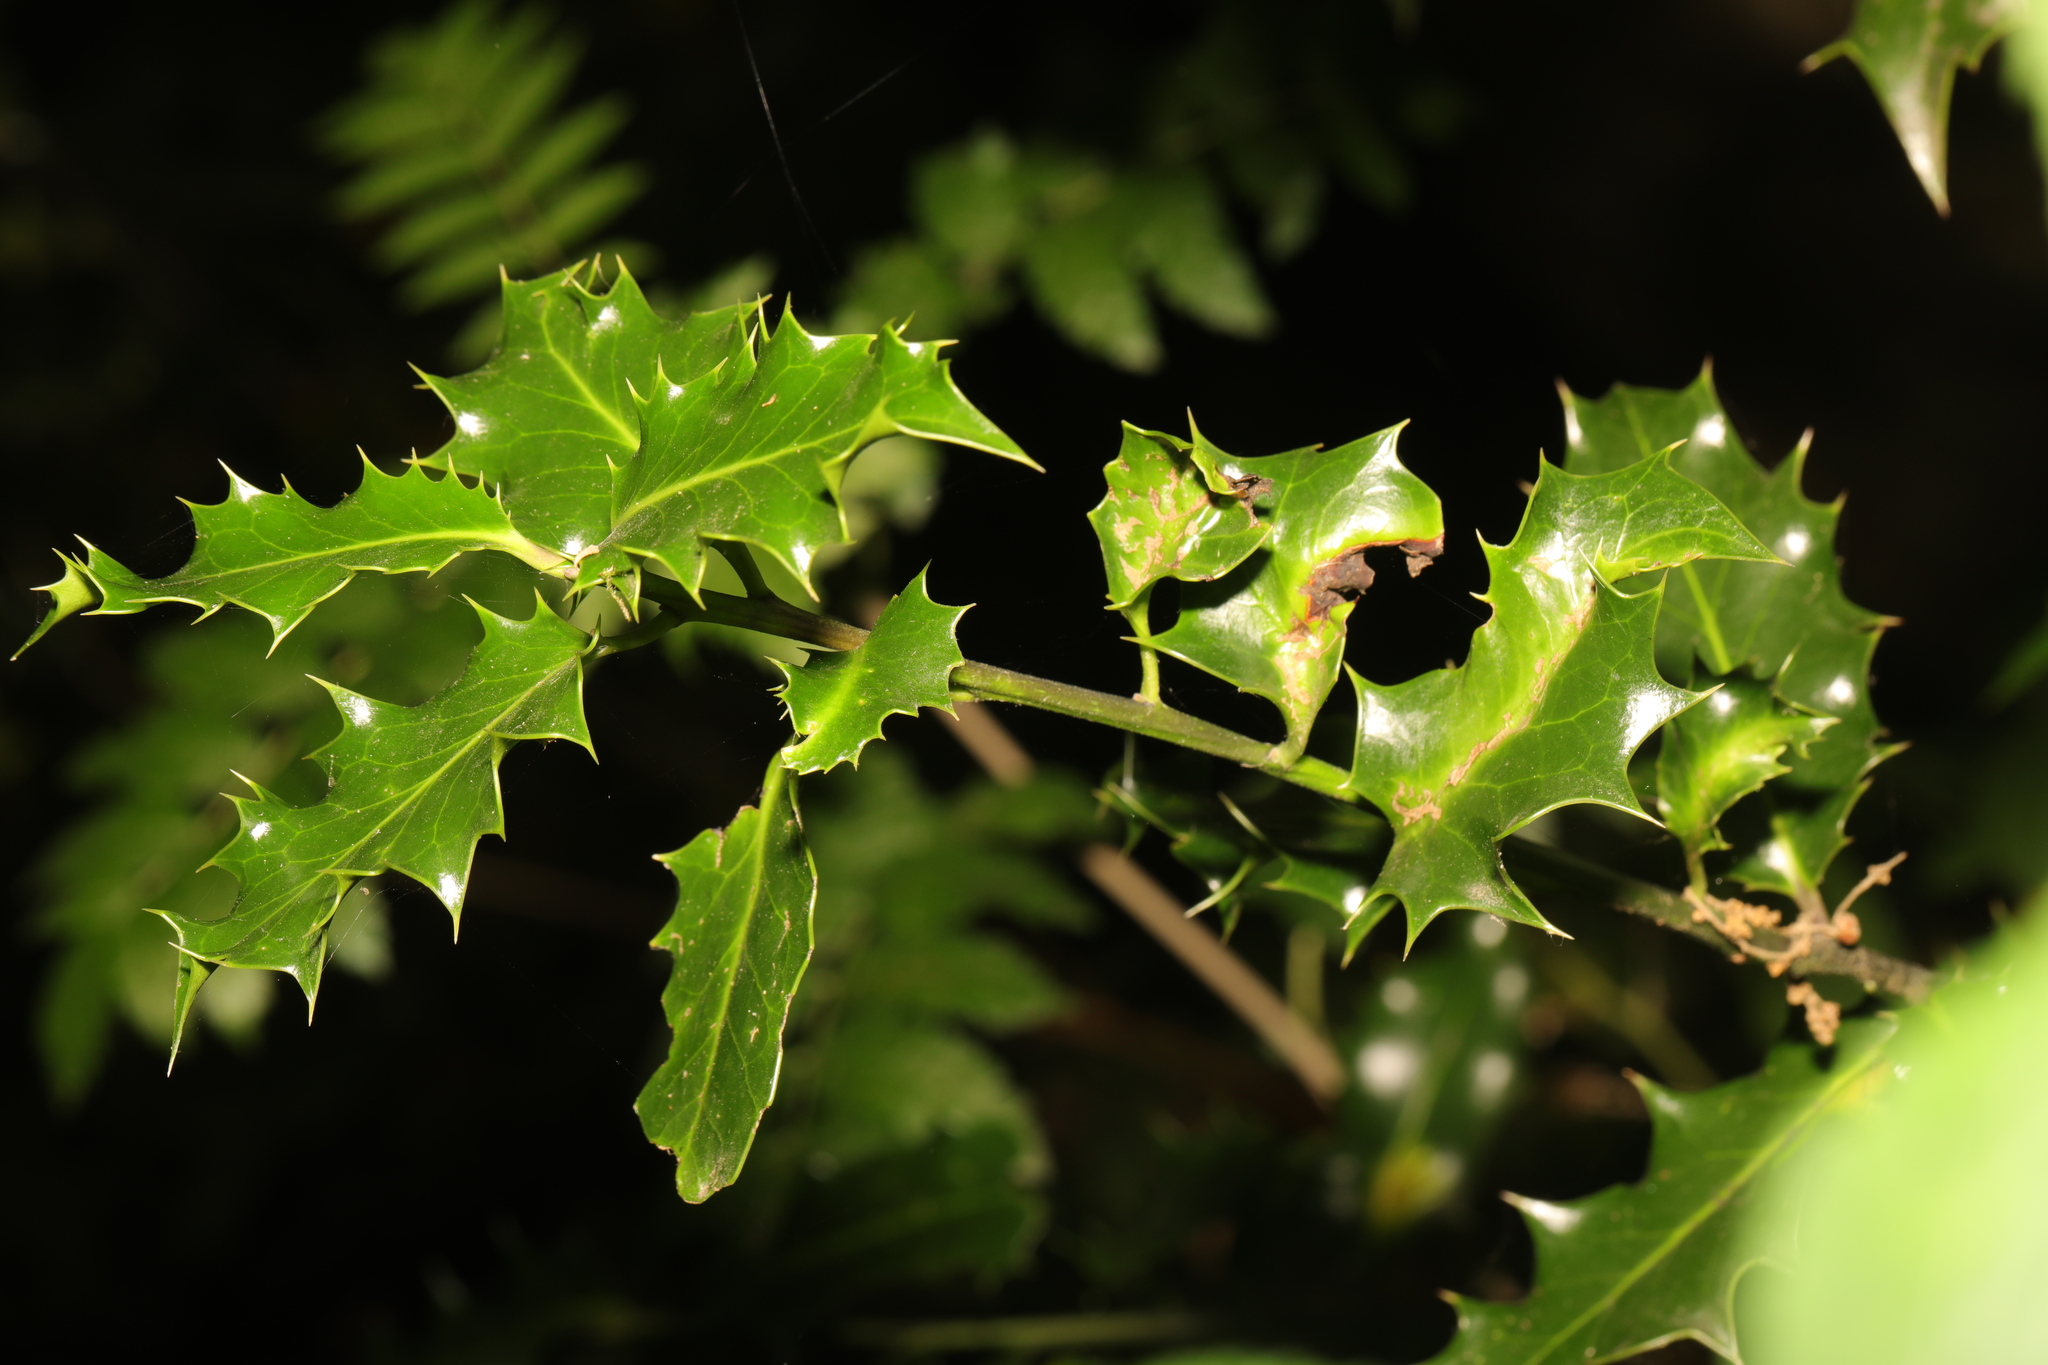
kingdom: Plantae
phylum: Tracheophyta
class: Magnoliopsida
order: Aquifoliales
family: Aquifoliaceae
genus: Ilex
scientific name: Ilex aquifolium
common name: English holly
